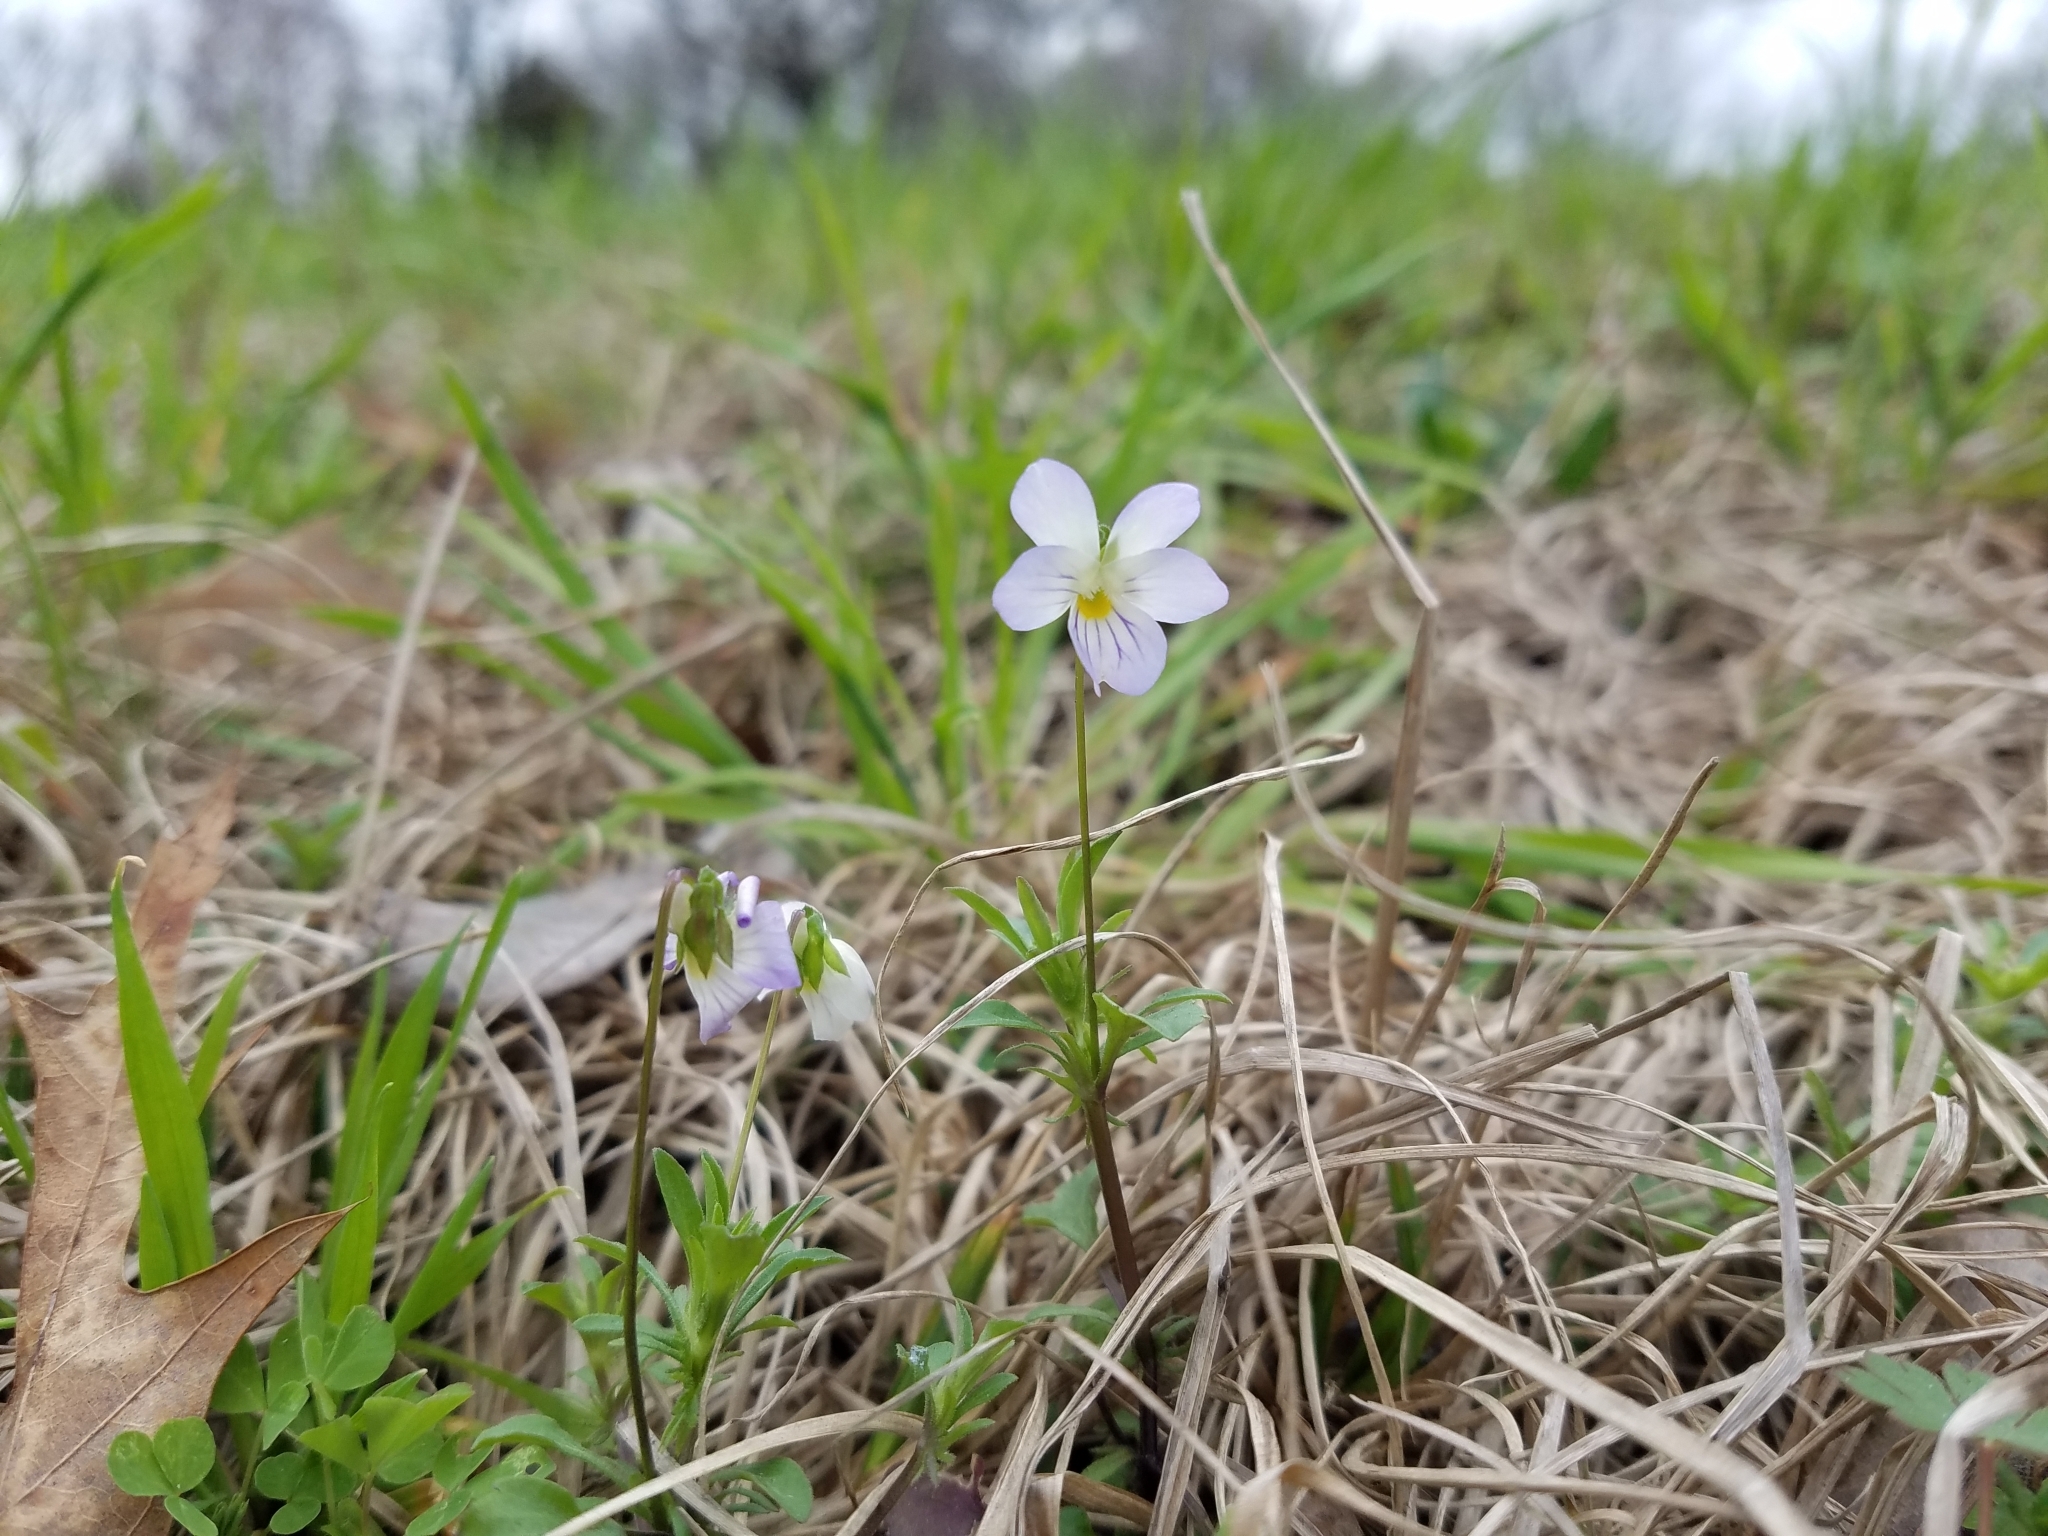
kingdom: Plantae
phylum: Tracheophyta
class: Magnoliopsida
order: Malpighiales
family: Violaceae
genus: Viola
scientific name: Viola rafinesquei
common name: American field pansy
